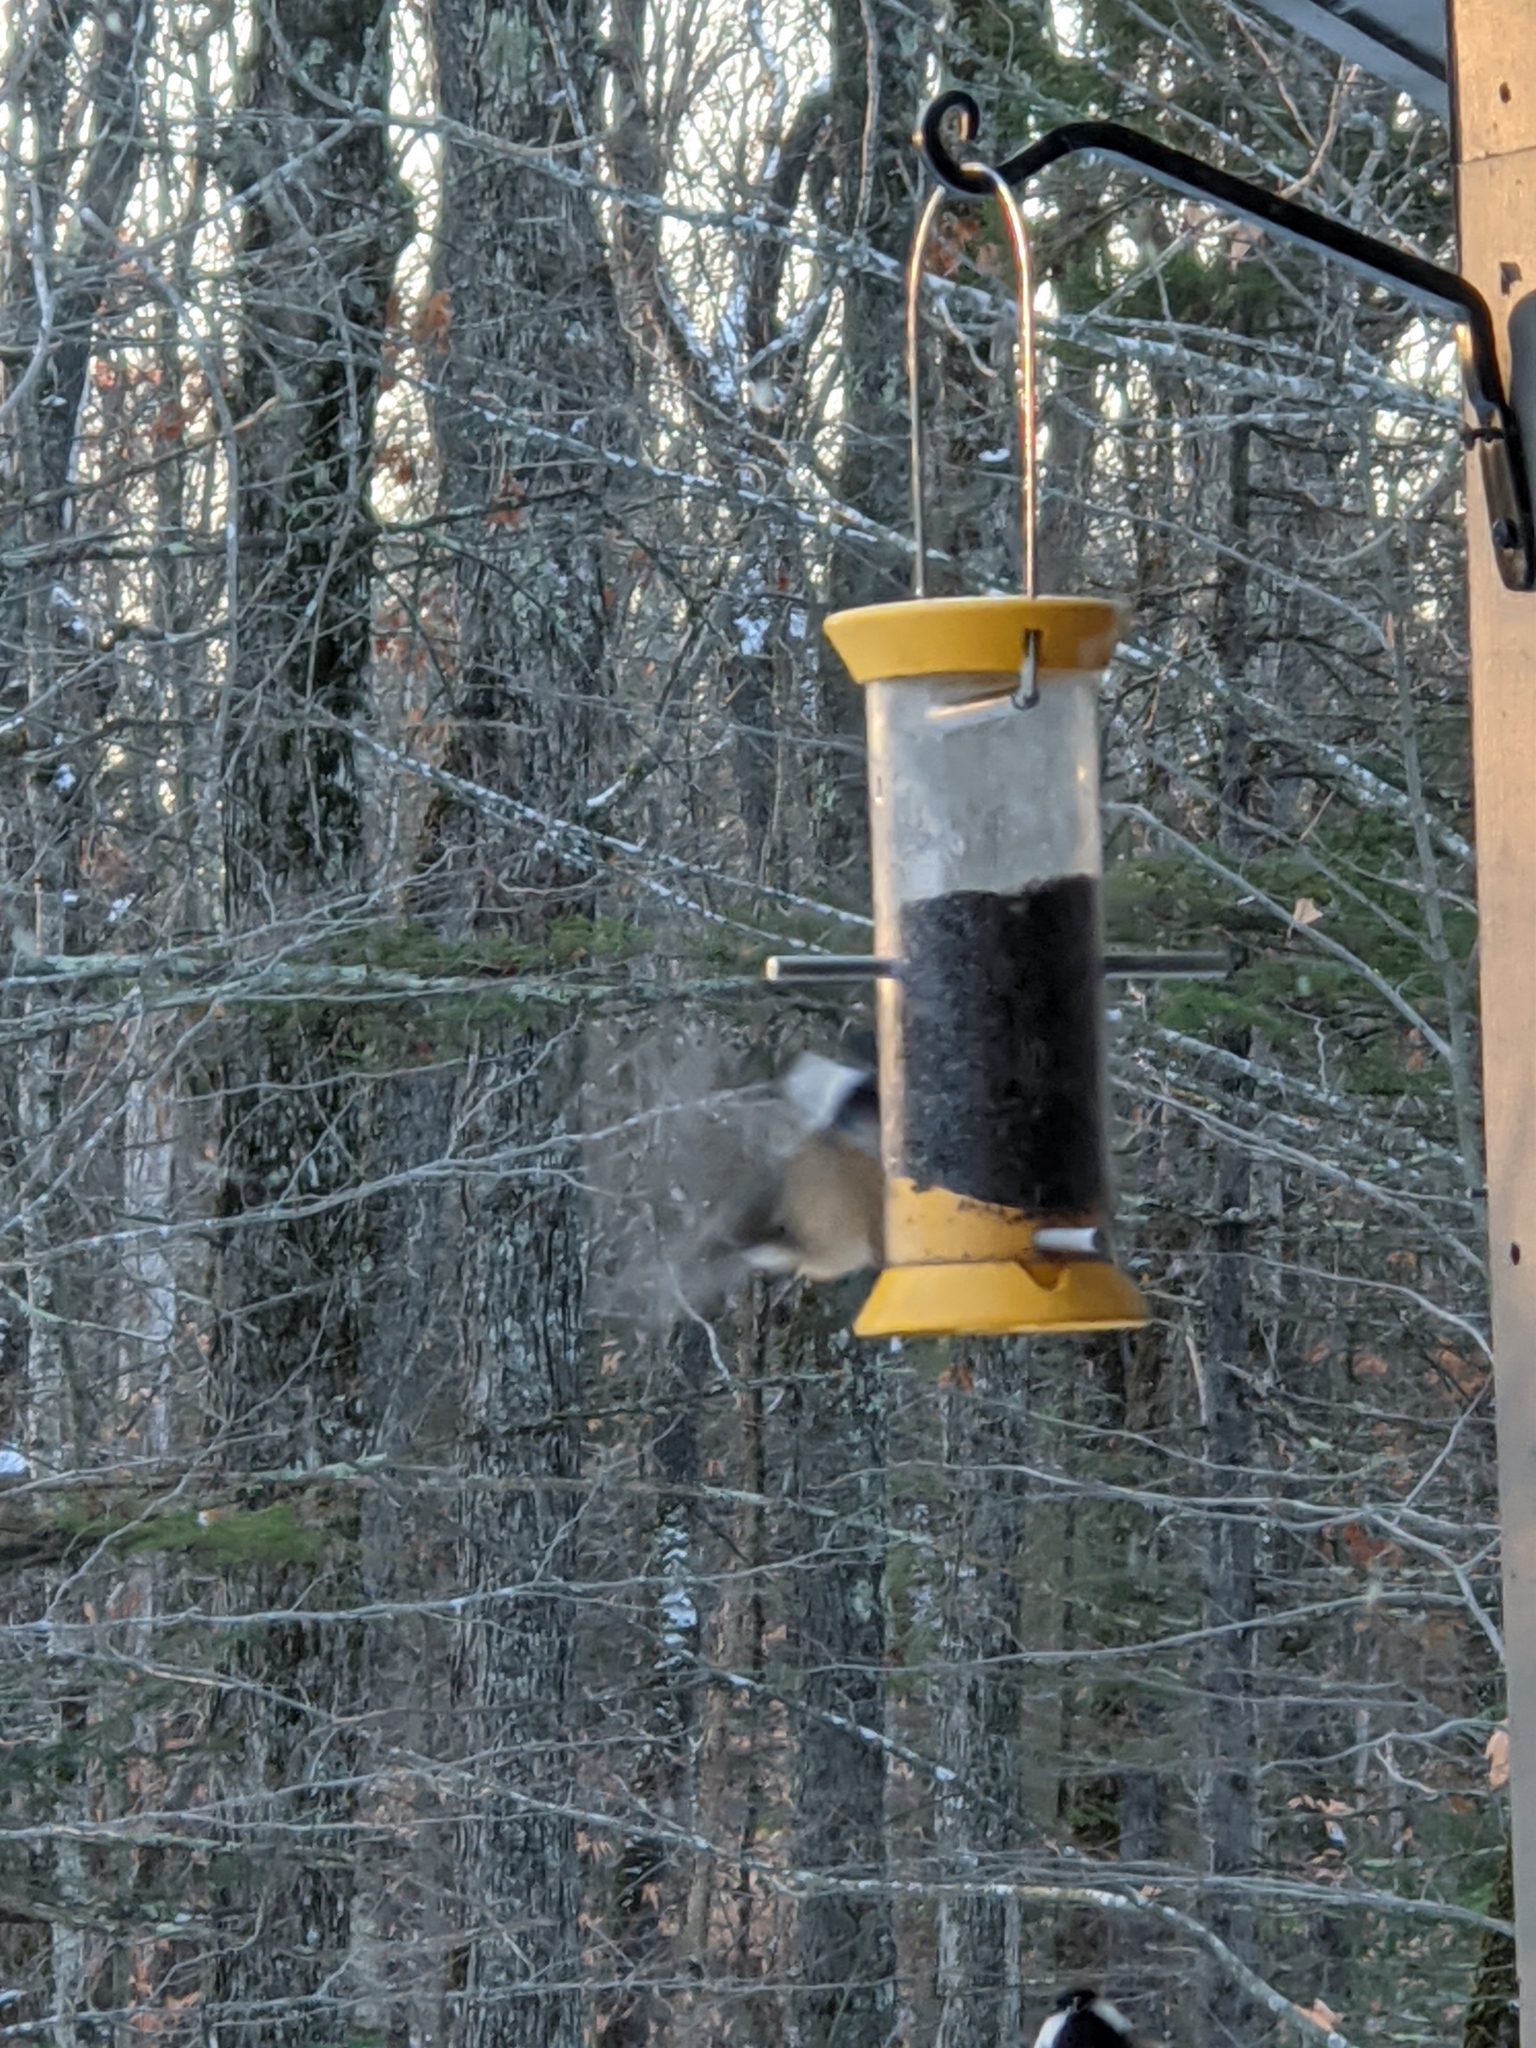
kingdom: Animalia
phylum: Chordata
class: Aves
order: Passeriformes
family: Paridae
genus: Poecile
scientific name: Poecile atricapillus
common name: Black-capped chickadee
